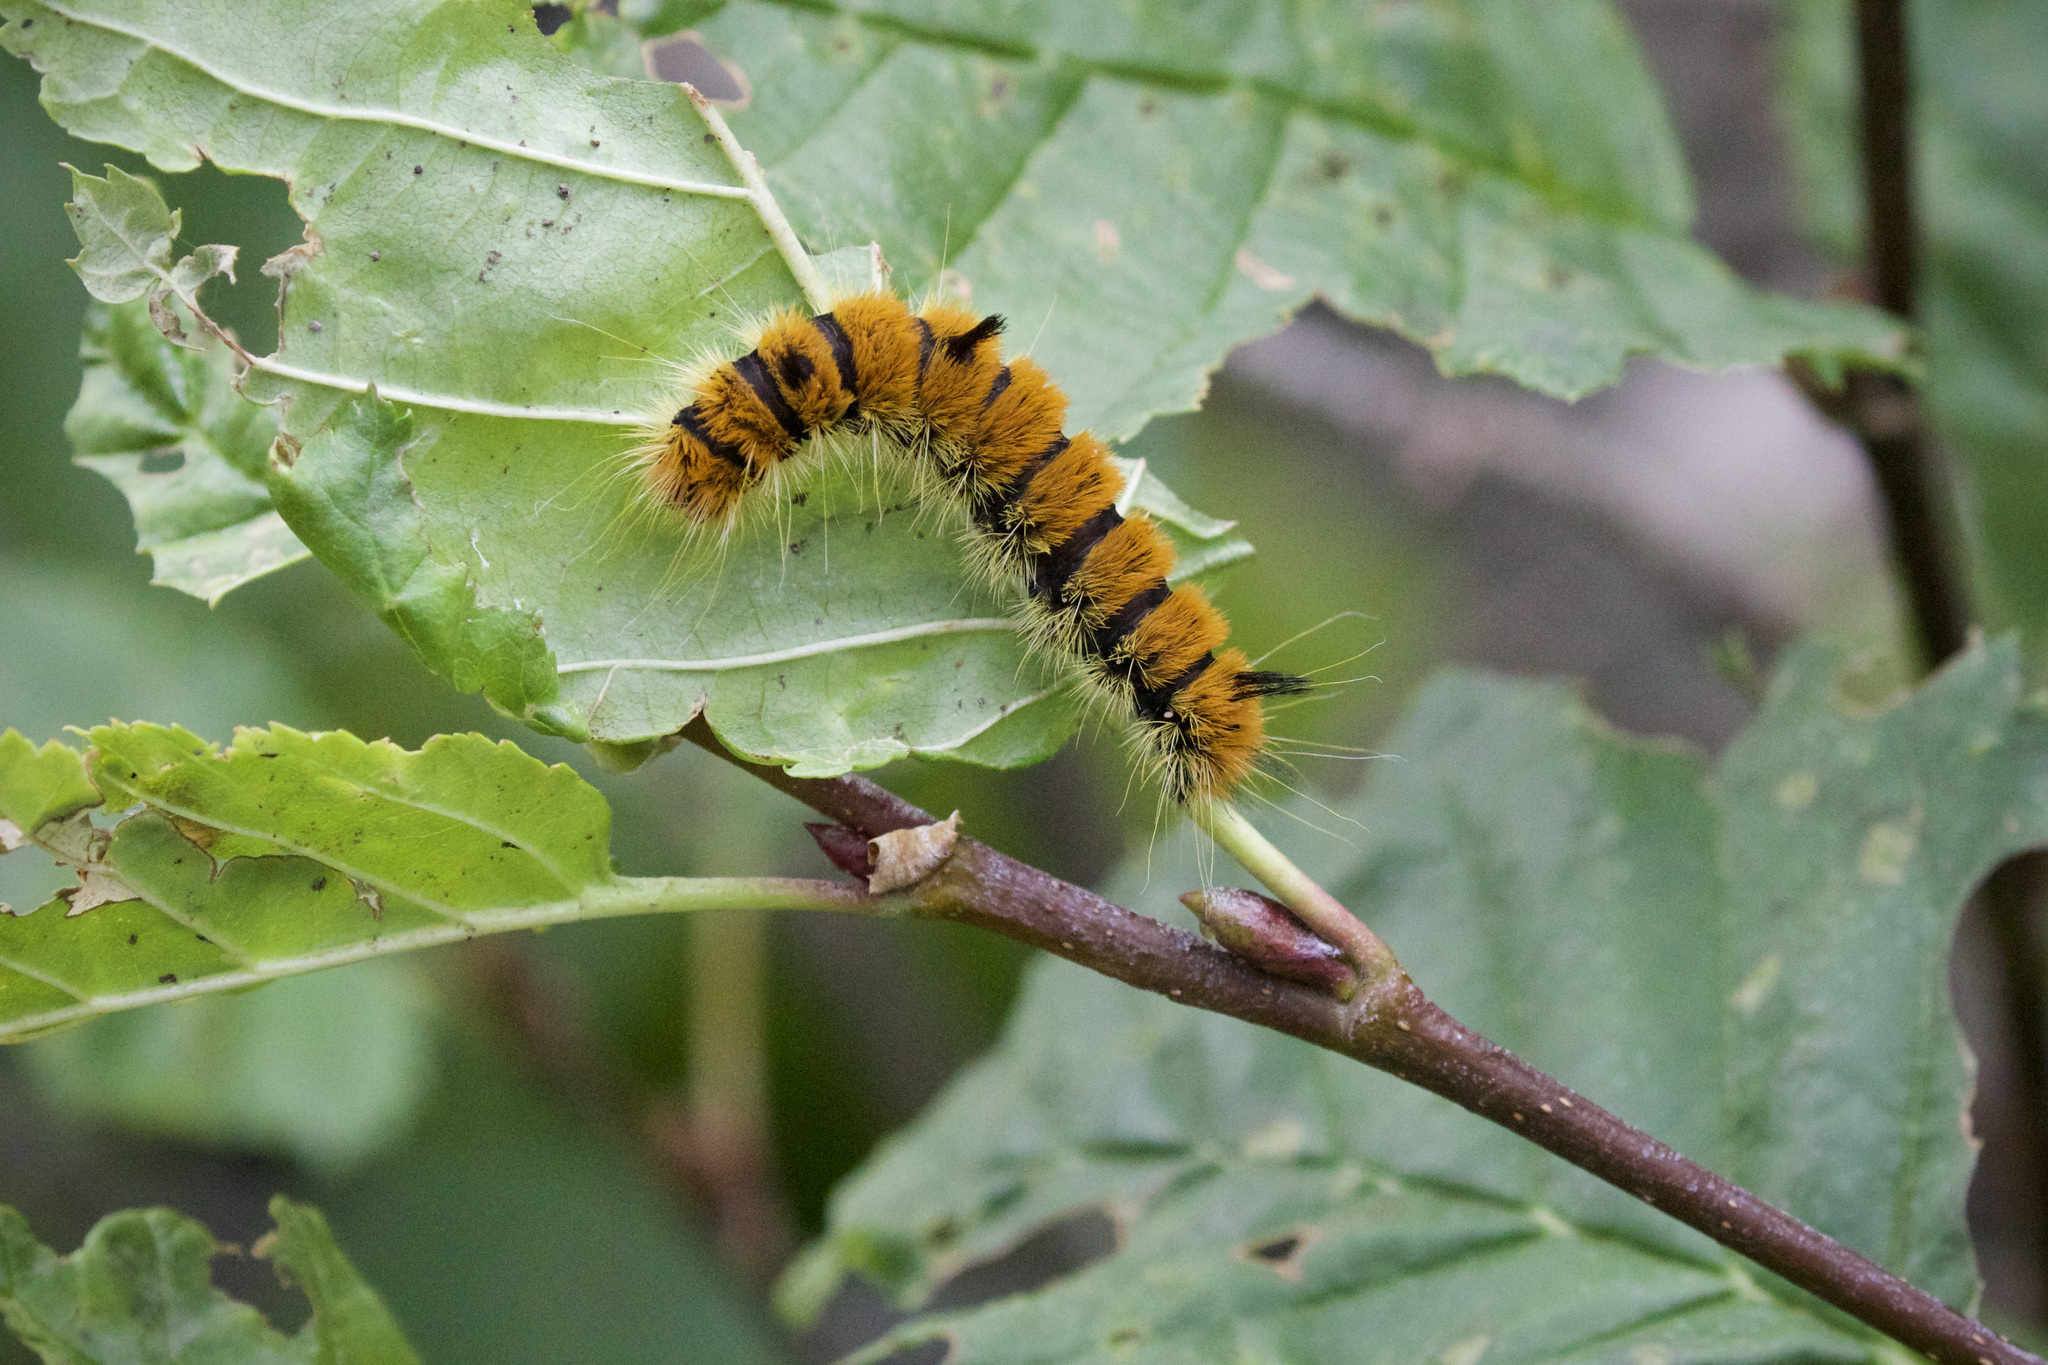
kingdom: Animalia
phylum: Arthropoda
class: Insecta
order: Lepidoptera
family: Noctuidae
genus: Acronicta
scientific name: Acronicta insita
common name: Large gray dagger
